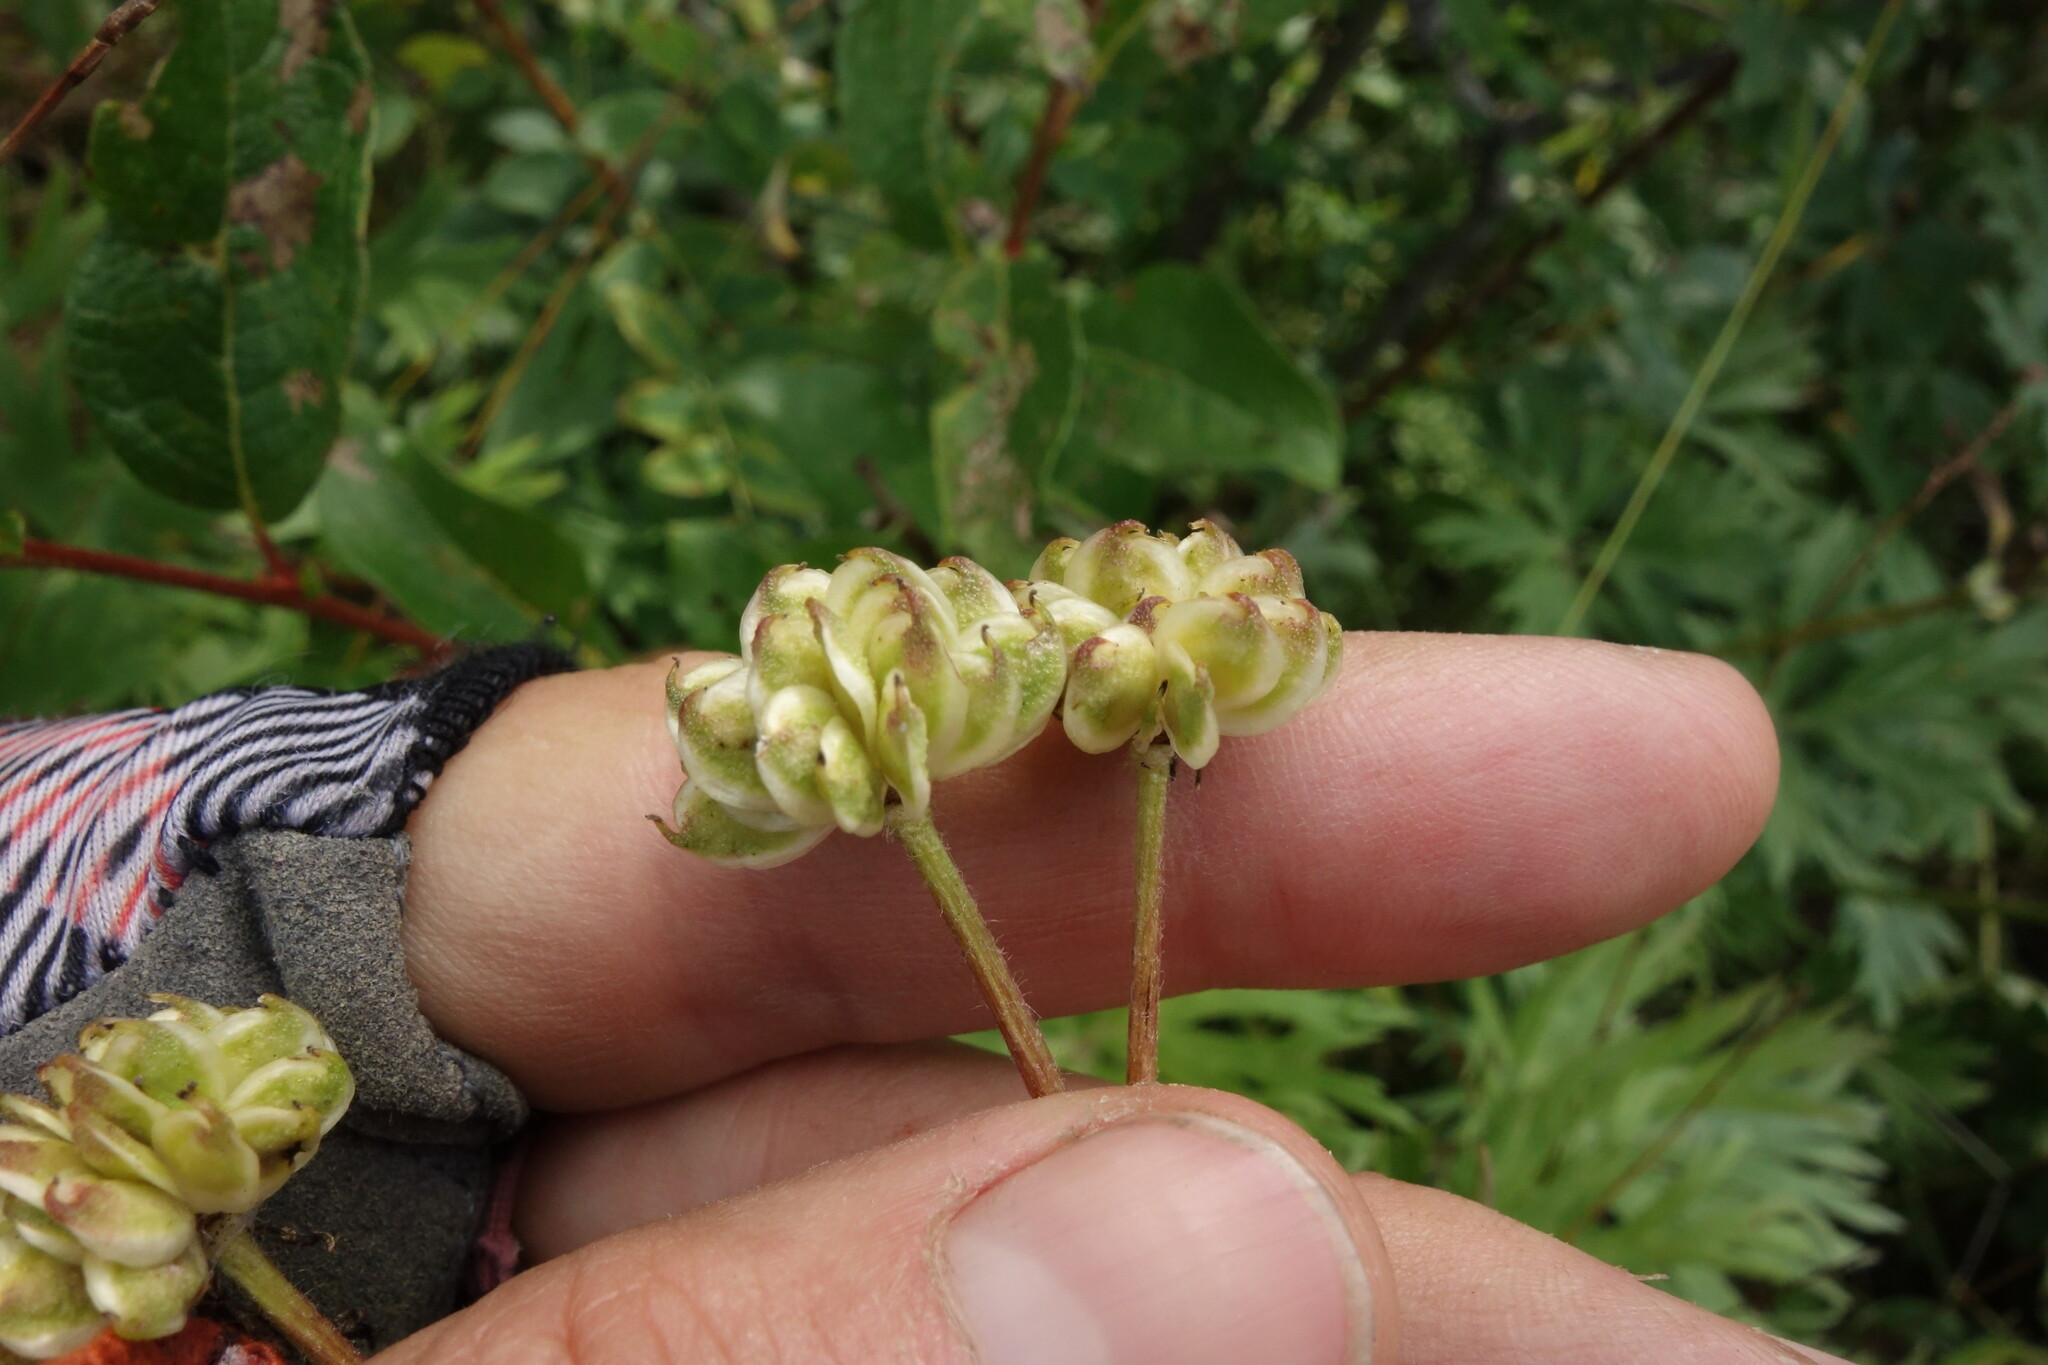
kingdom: Plantae
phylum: Tracheophyta
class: Magnoliopsida
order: Ranunculales
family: Ranunculaceae
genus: Anemonastrum
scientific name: Anemonastrum narcissiflorum
